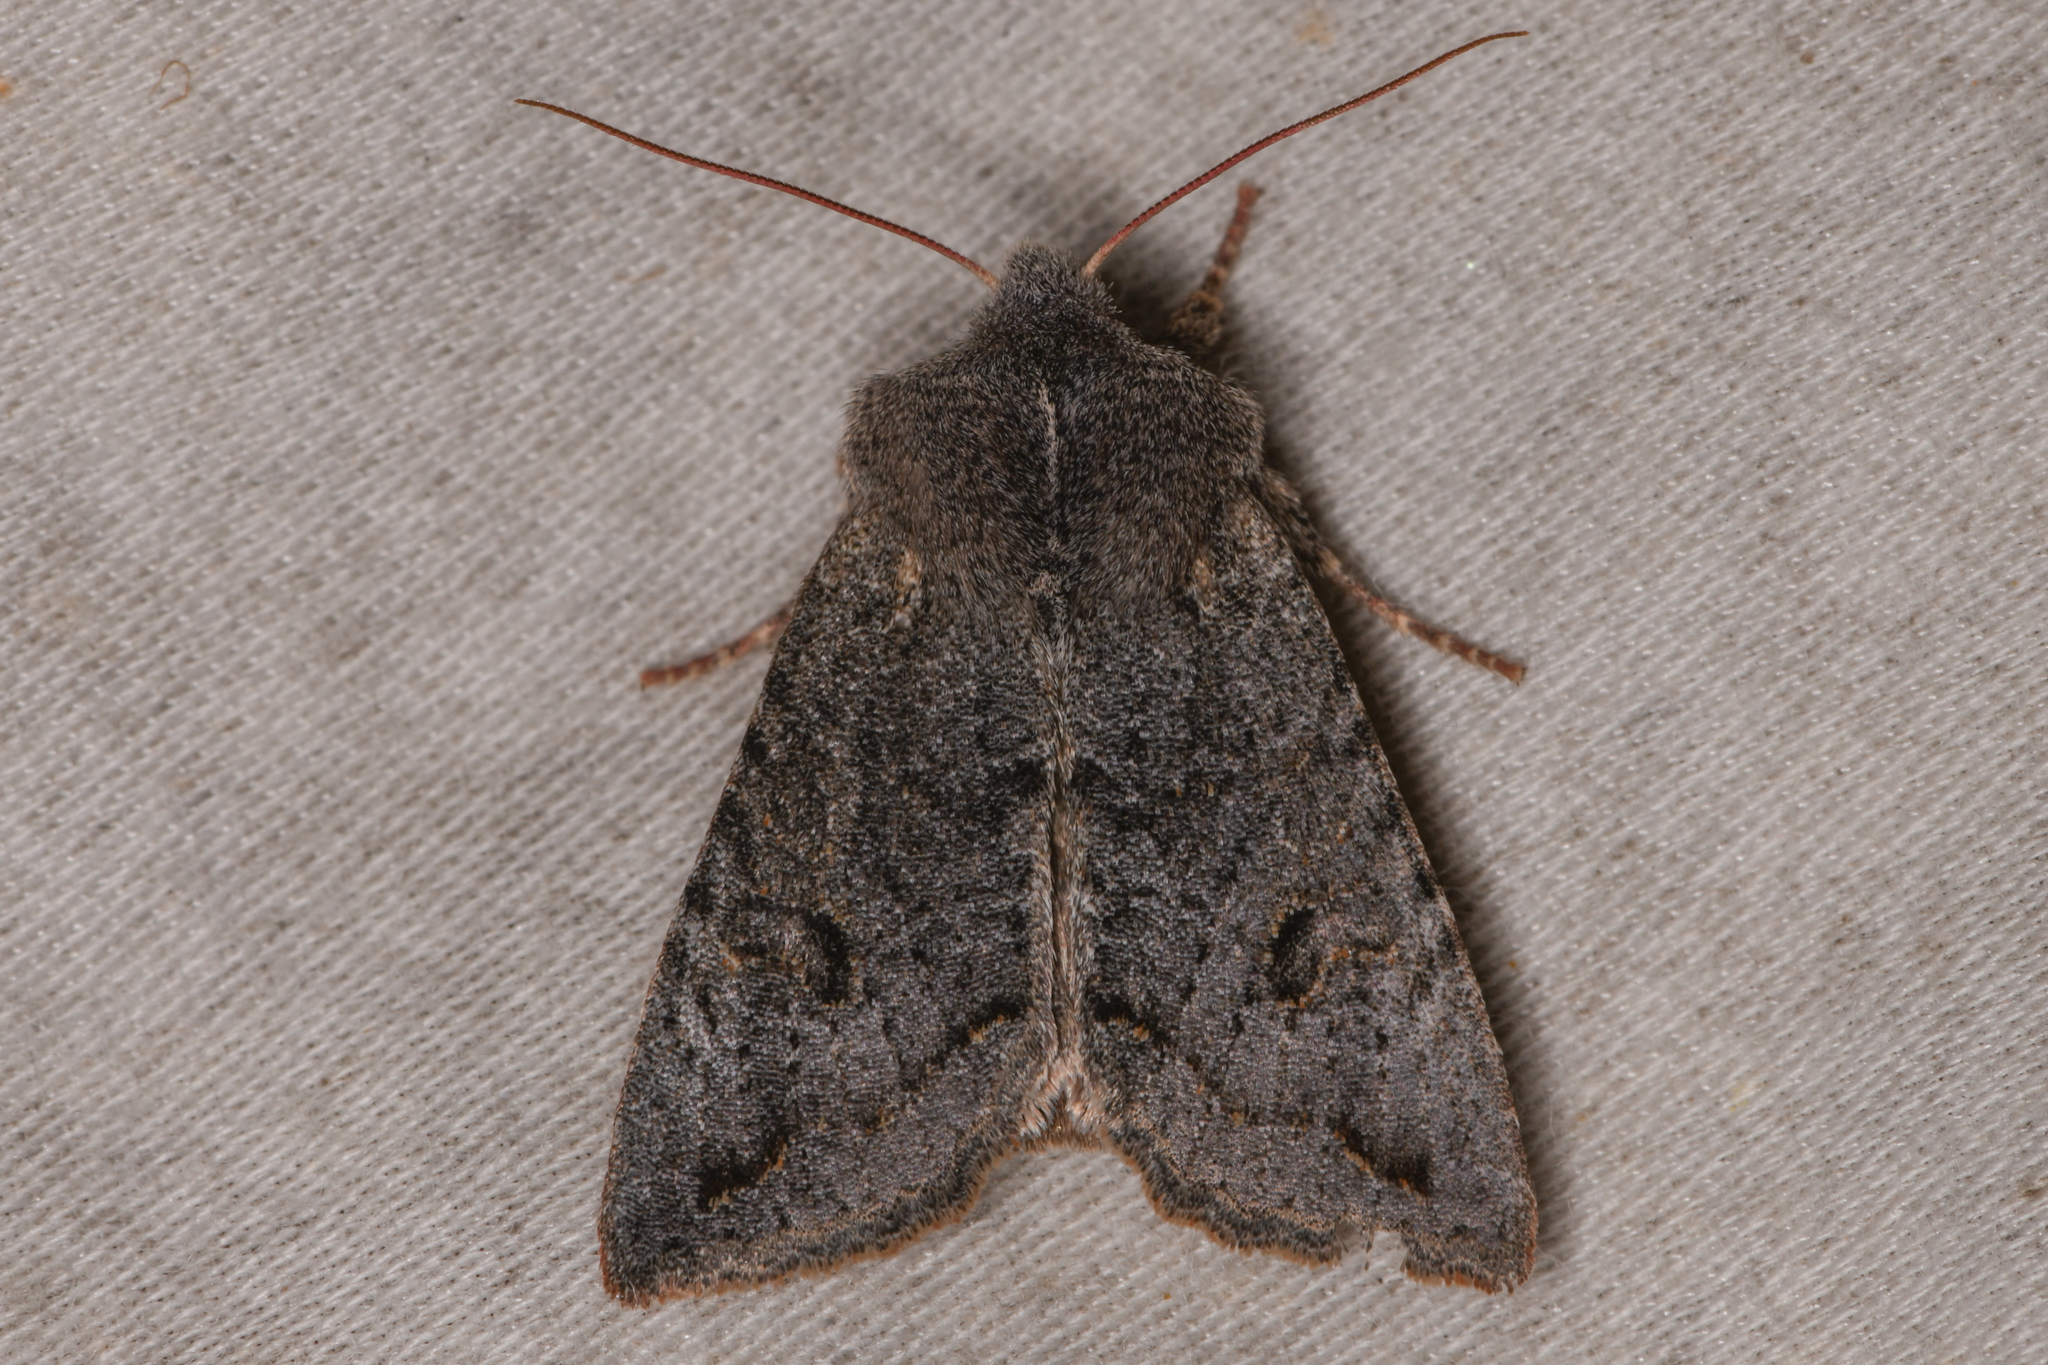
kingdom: Animalia
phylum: Arthropoda
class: Insecta
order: Lepidoptera
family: Noctuidae
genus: Orthosia
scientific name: Orthosia erythrolita
